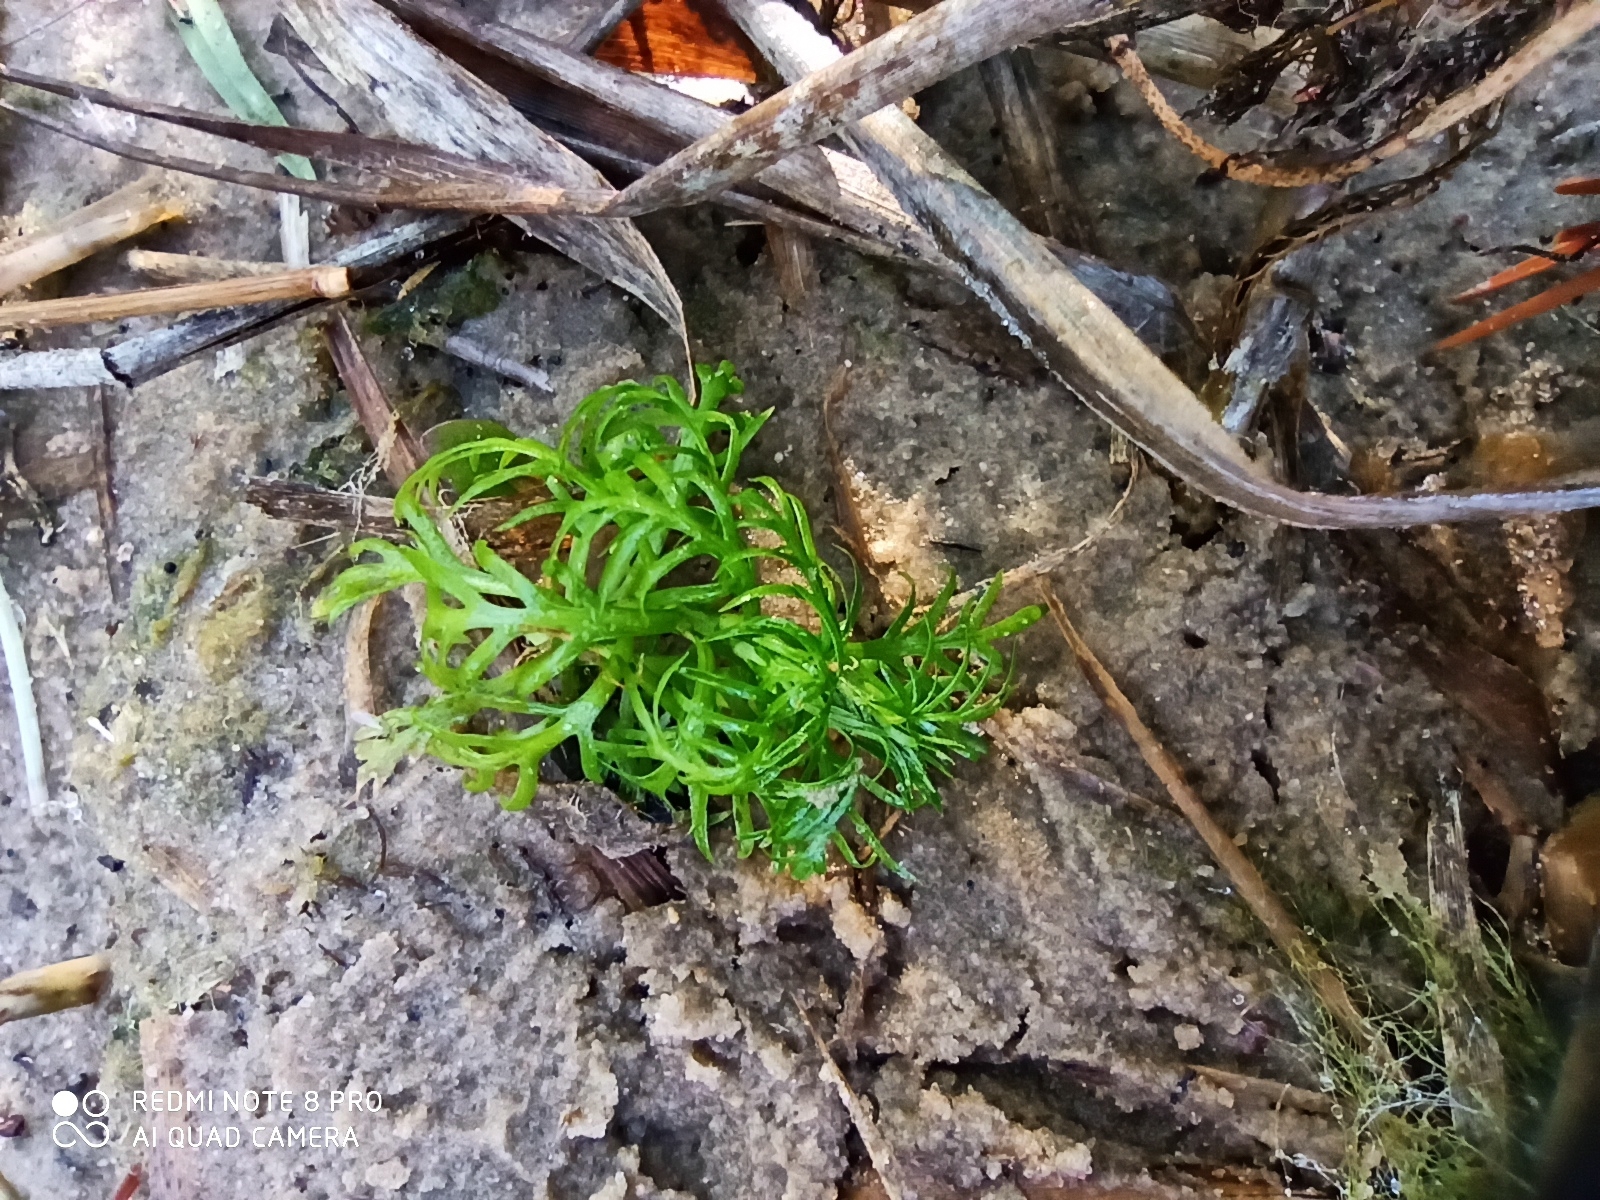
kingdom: Plantae
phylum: Tracheophyta
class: Magnoliopsida
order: Ericales
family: Primulaceae
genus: Hottonia
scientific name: Hottonia palustris
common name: Water-violet
